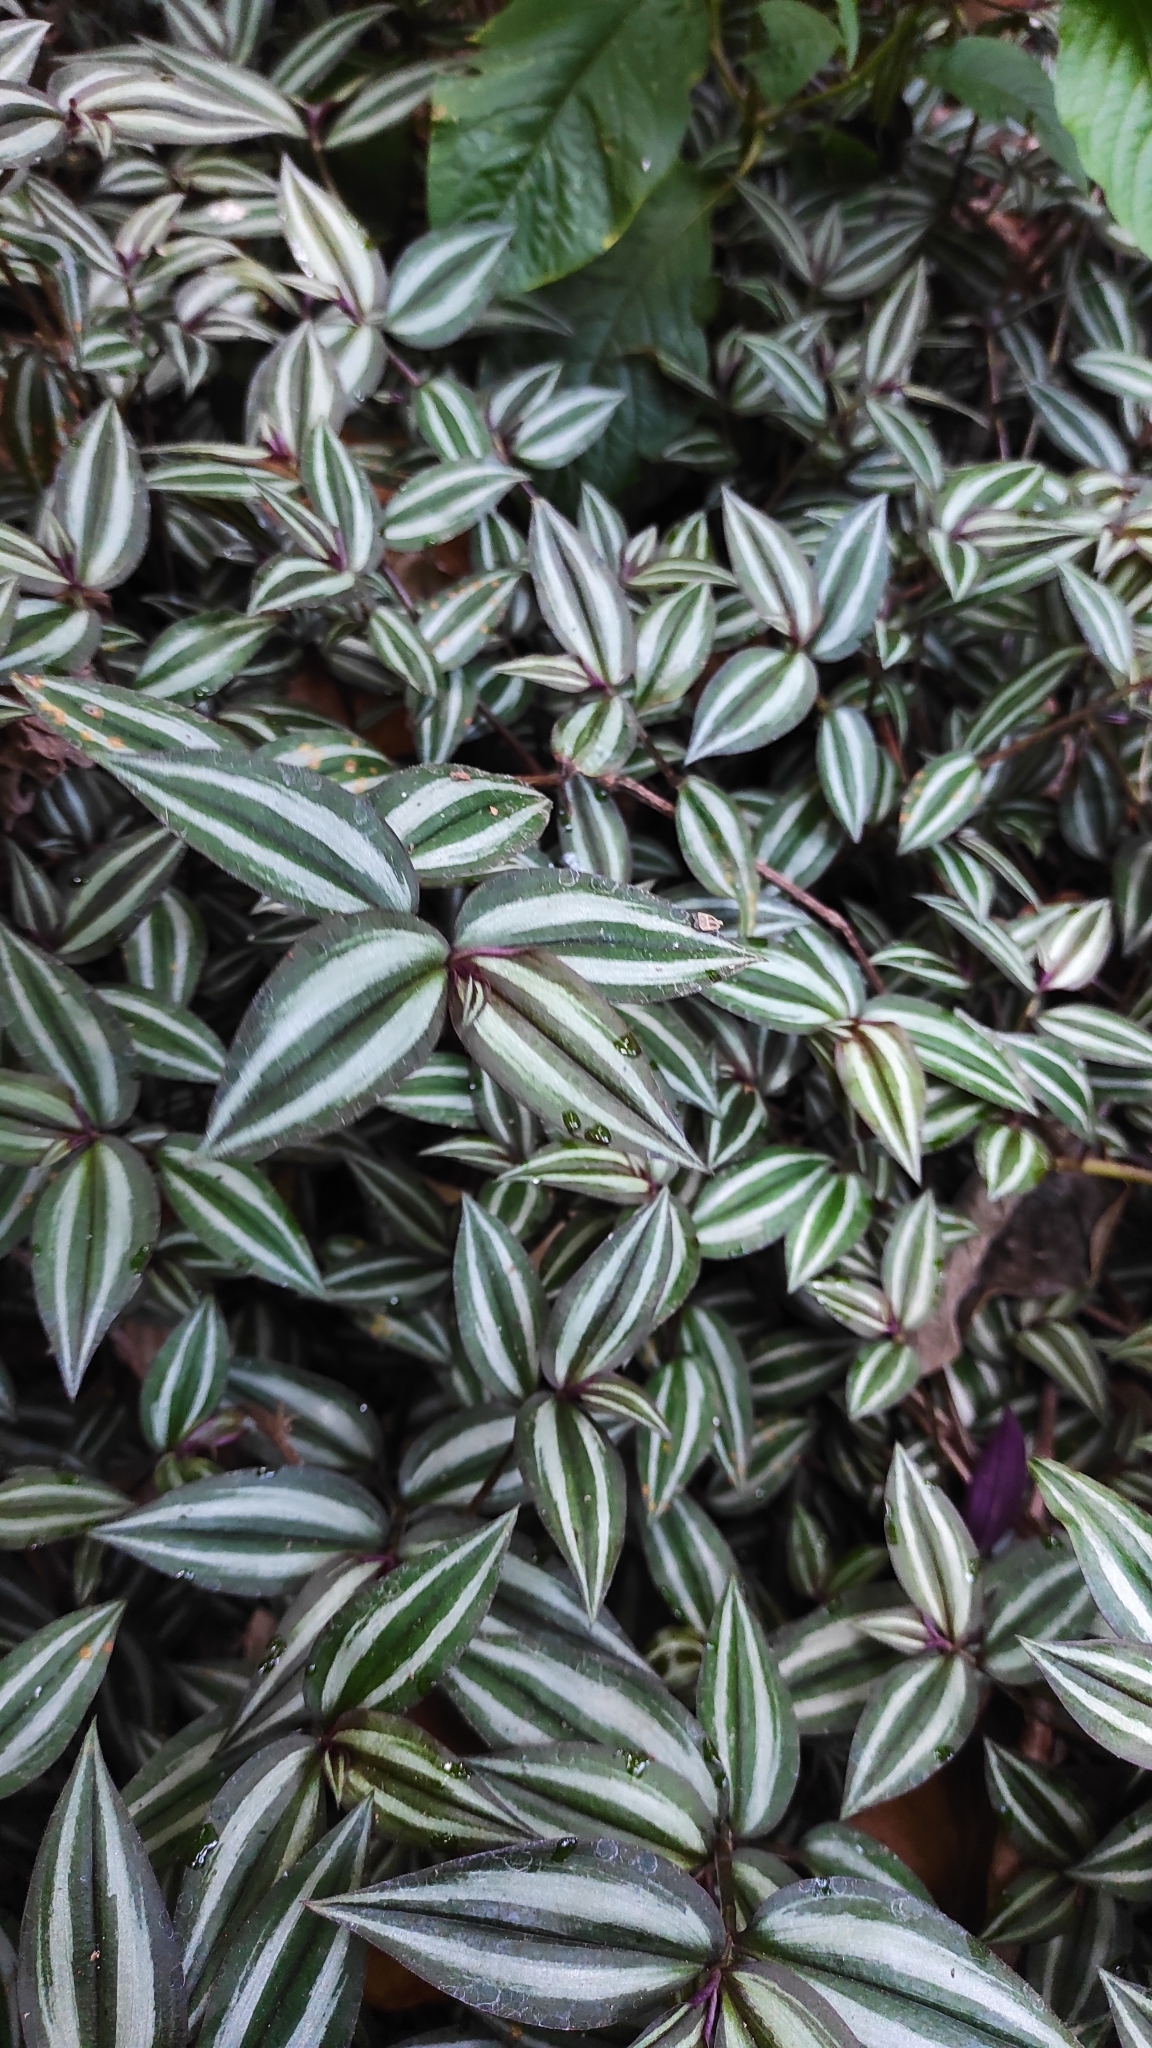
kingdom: Plantae
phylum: Tracheophyta
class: Liliopsida
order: Commelinales
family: Commelinaceae
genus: Tradescantia
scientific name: Tradescantia zebrina
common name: Inchplant
